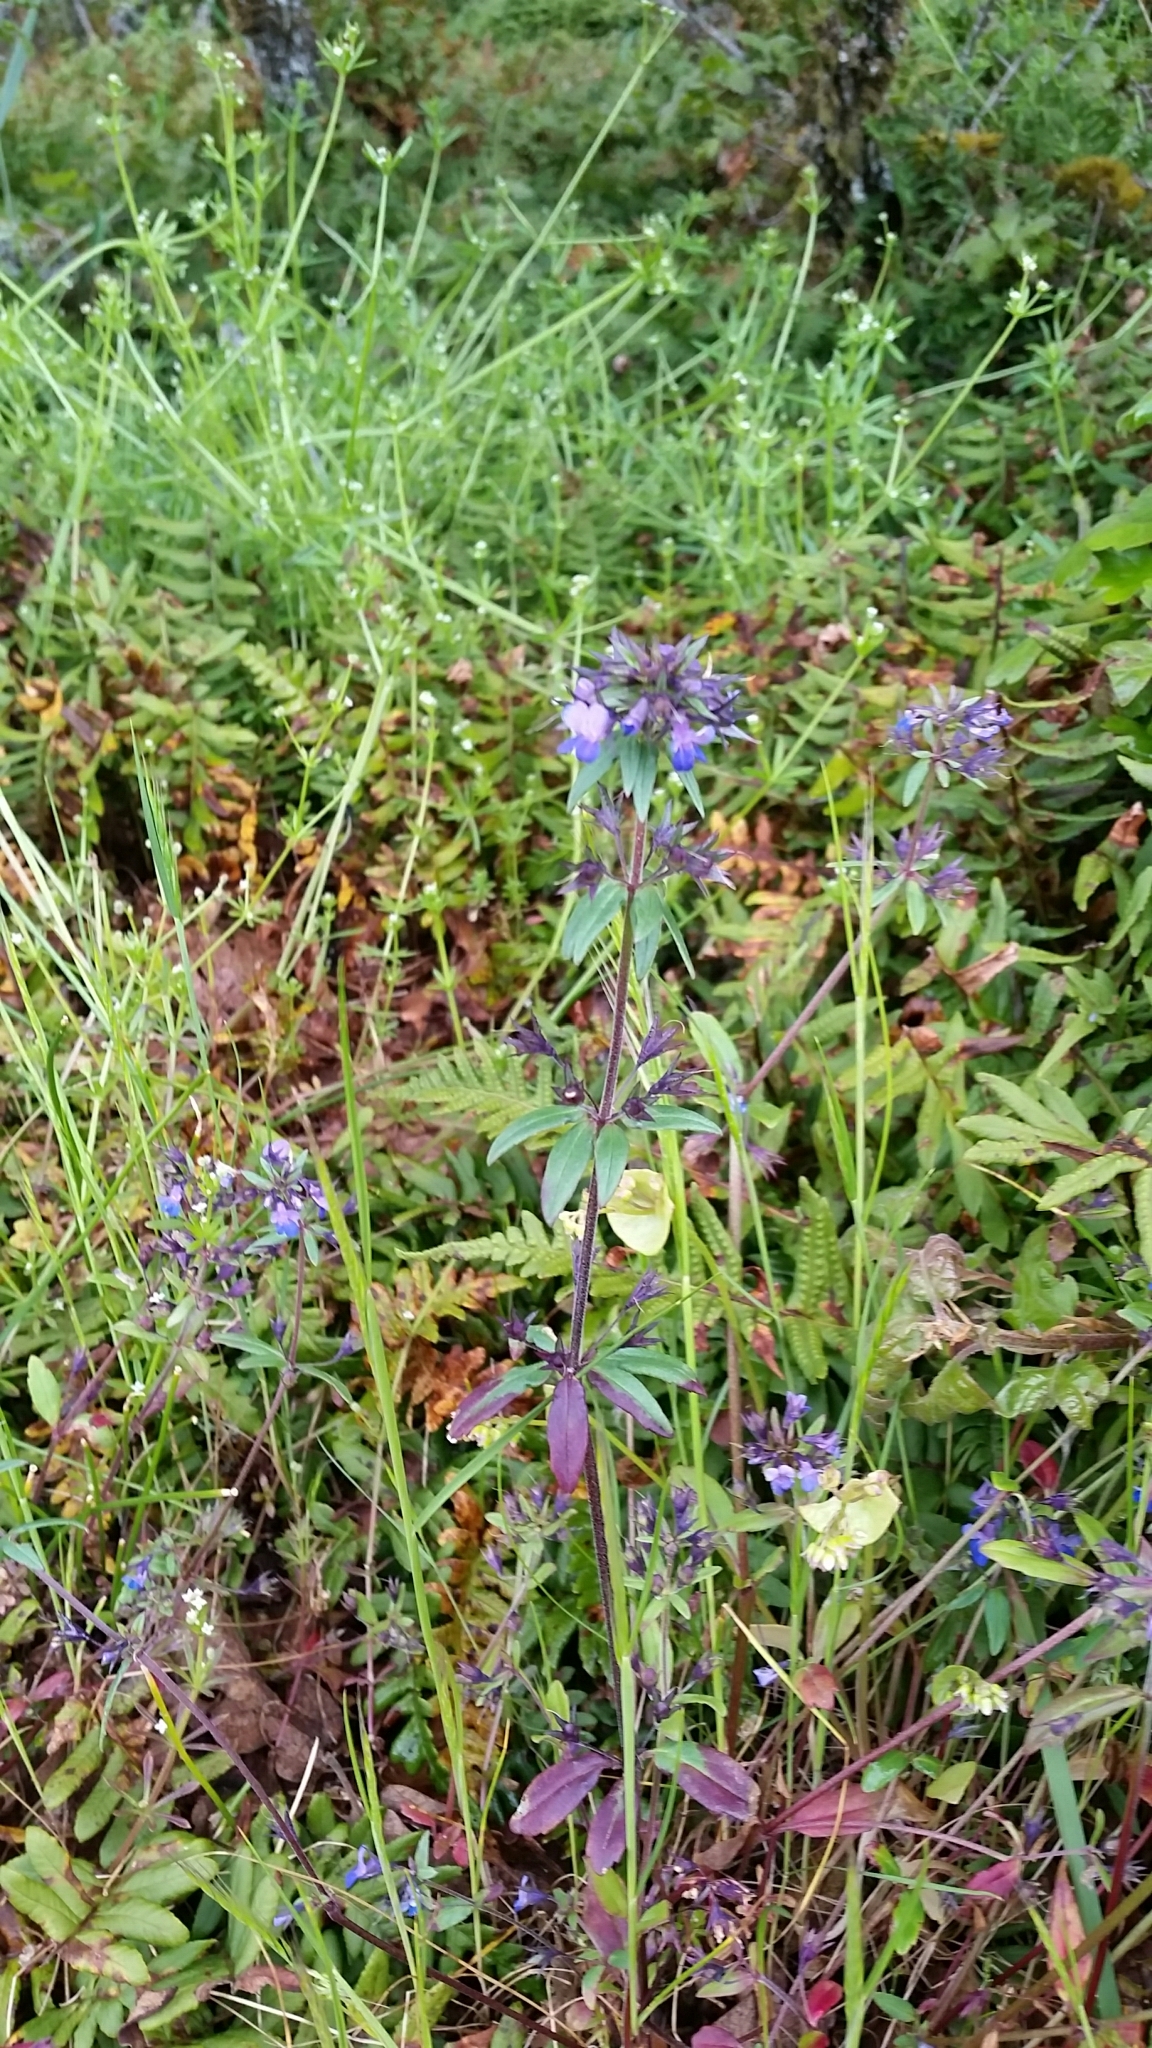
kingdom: Plantae
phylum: Tracheophyta
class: Magnoliopsida
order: Lamiales
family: Plantaginaceae
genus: Collinsia
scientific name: Collinsia grandiflora
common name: Large-flower blue-eyed-mary
